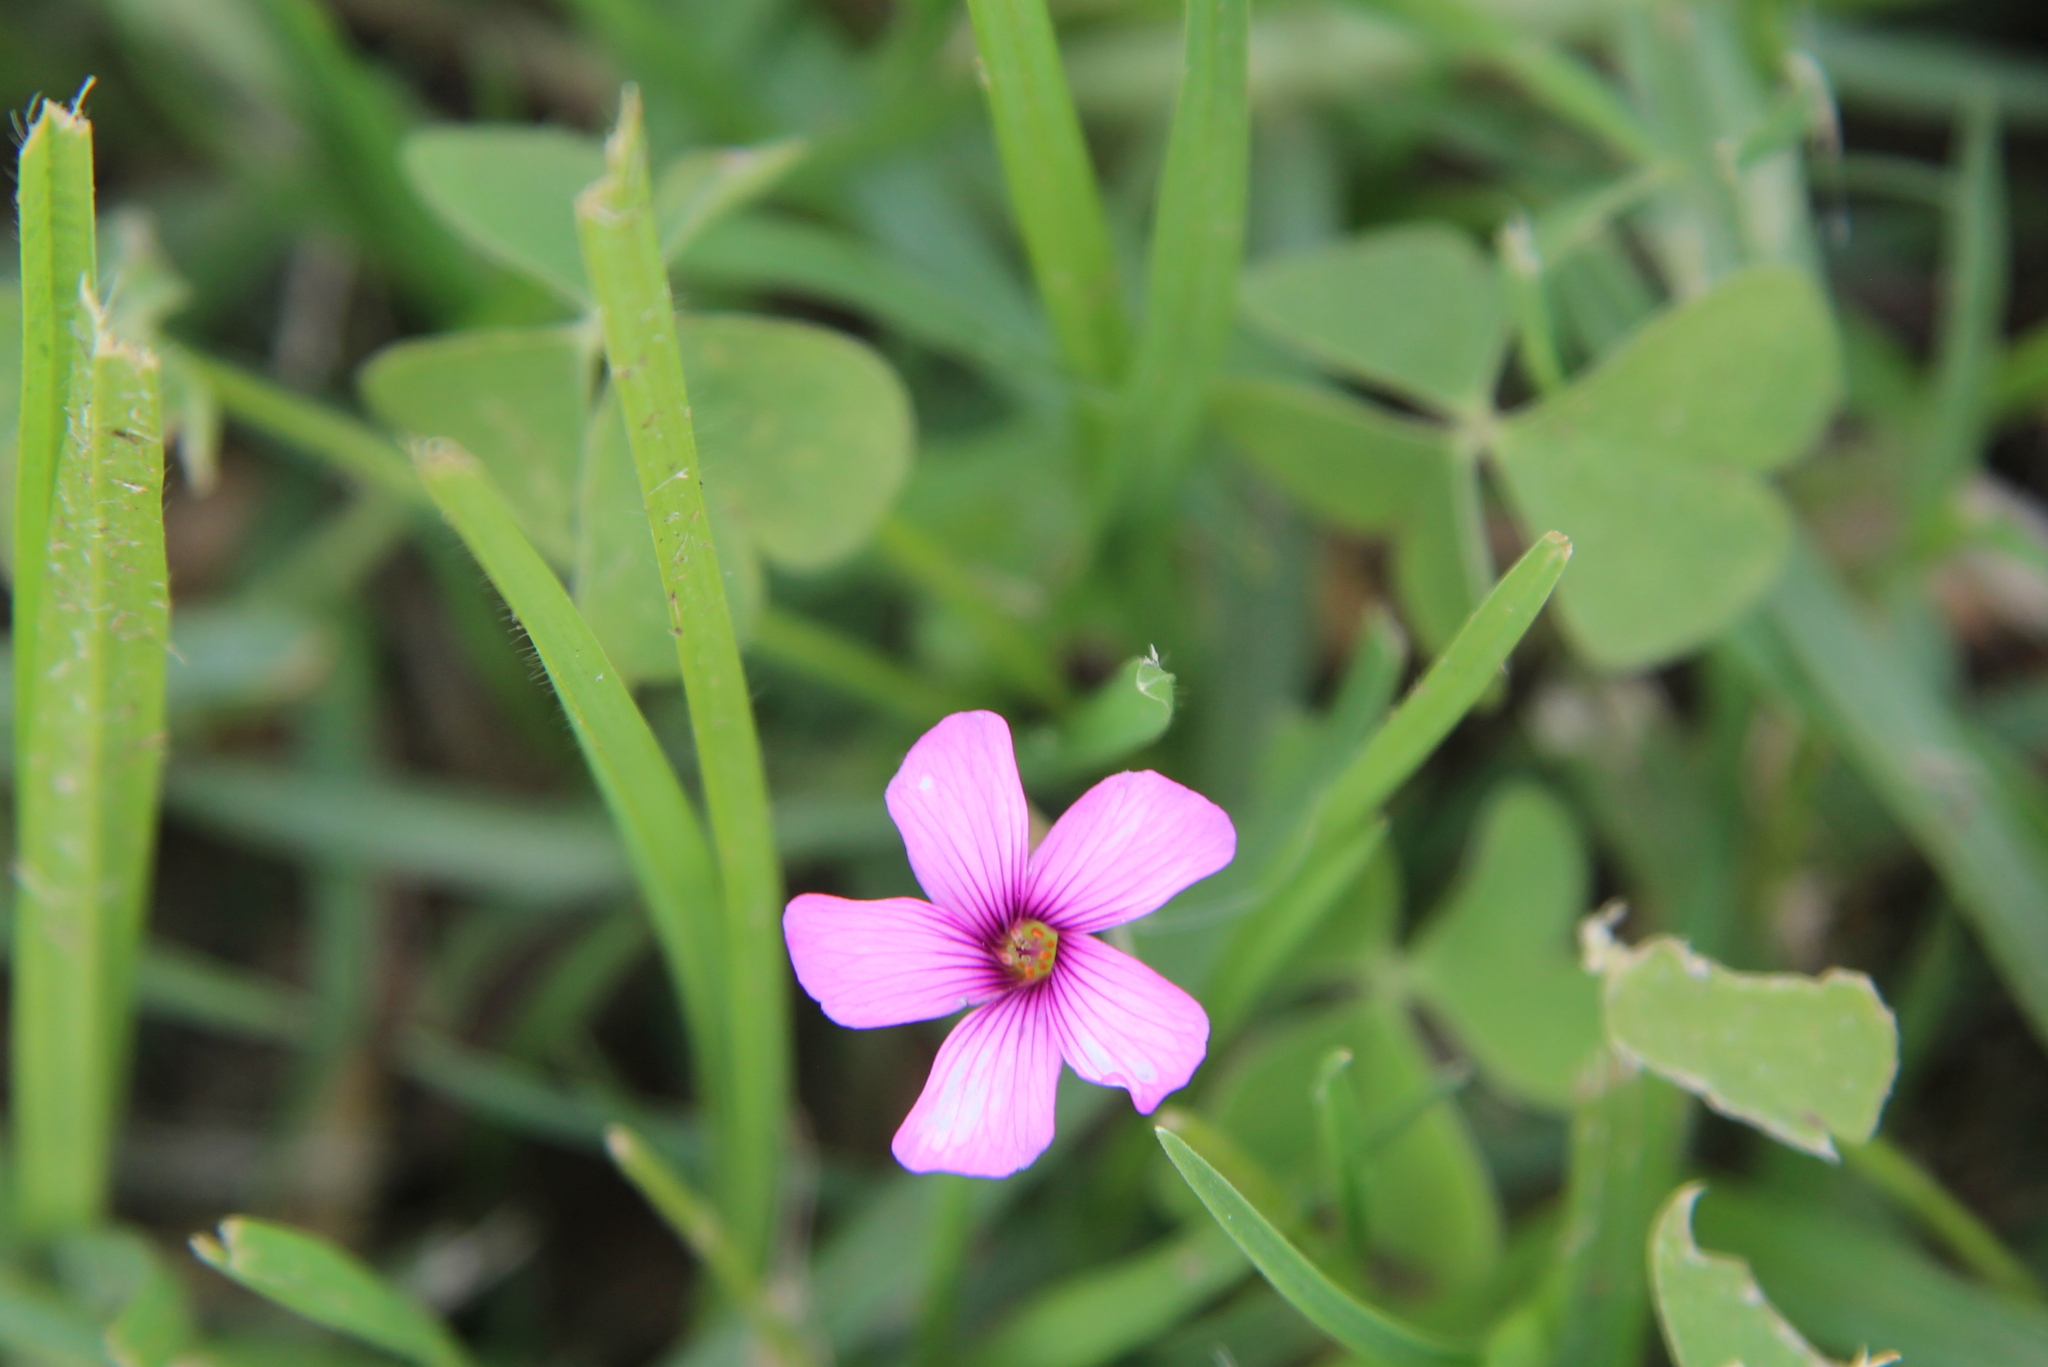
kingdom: Plantae
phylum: Tracheophyta
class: Magnoliopsida
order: Oxalidales
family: Oxalidaceae
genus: Oxalis
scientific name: Oxalis articulata
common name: Pink-sorrel
